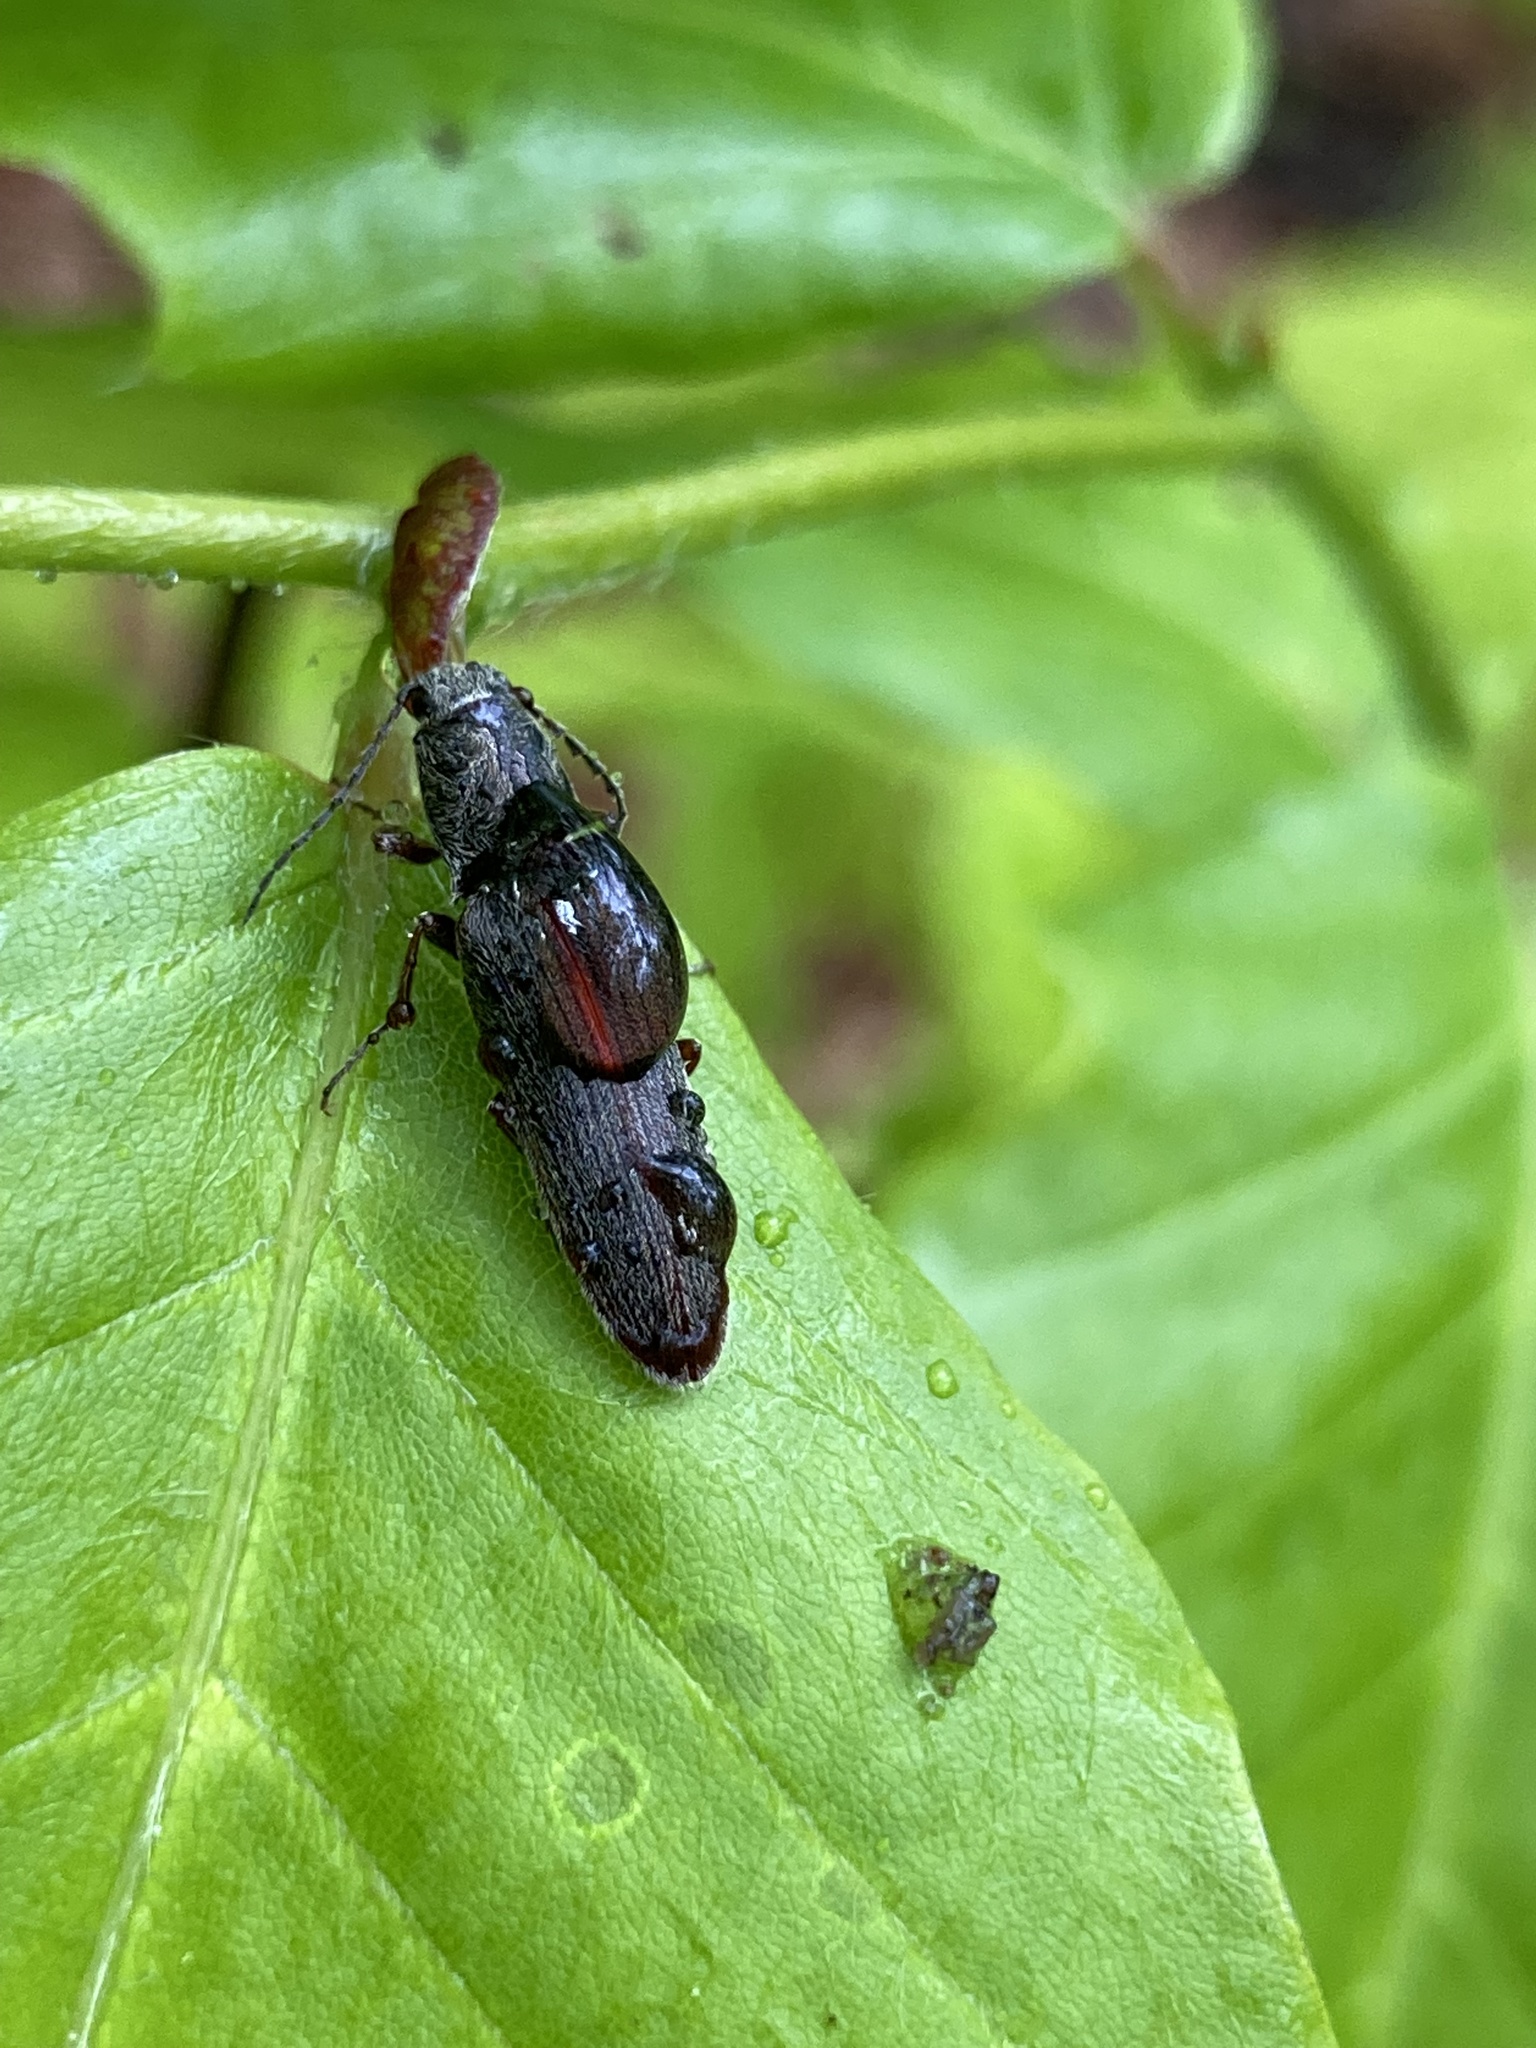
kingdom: Animalia
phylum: Arthropoda
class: Insecta
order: Coleoptera
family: Elateridae
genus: Sylvanelater
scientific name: Sylvanelater cylindriformis
